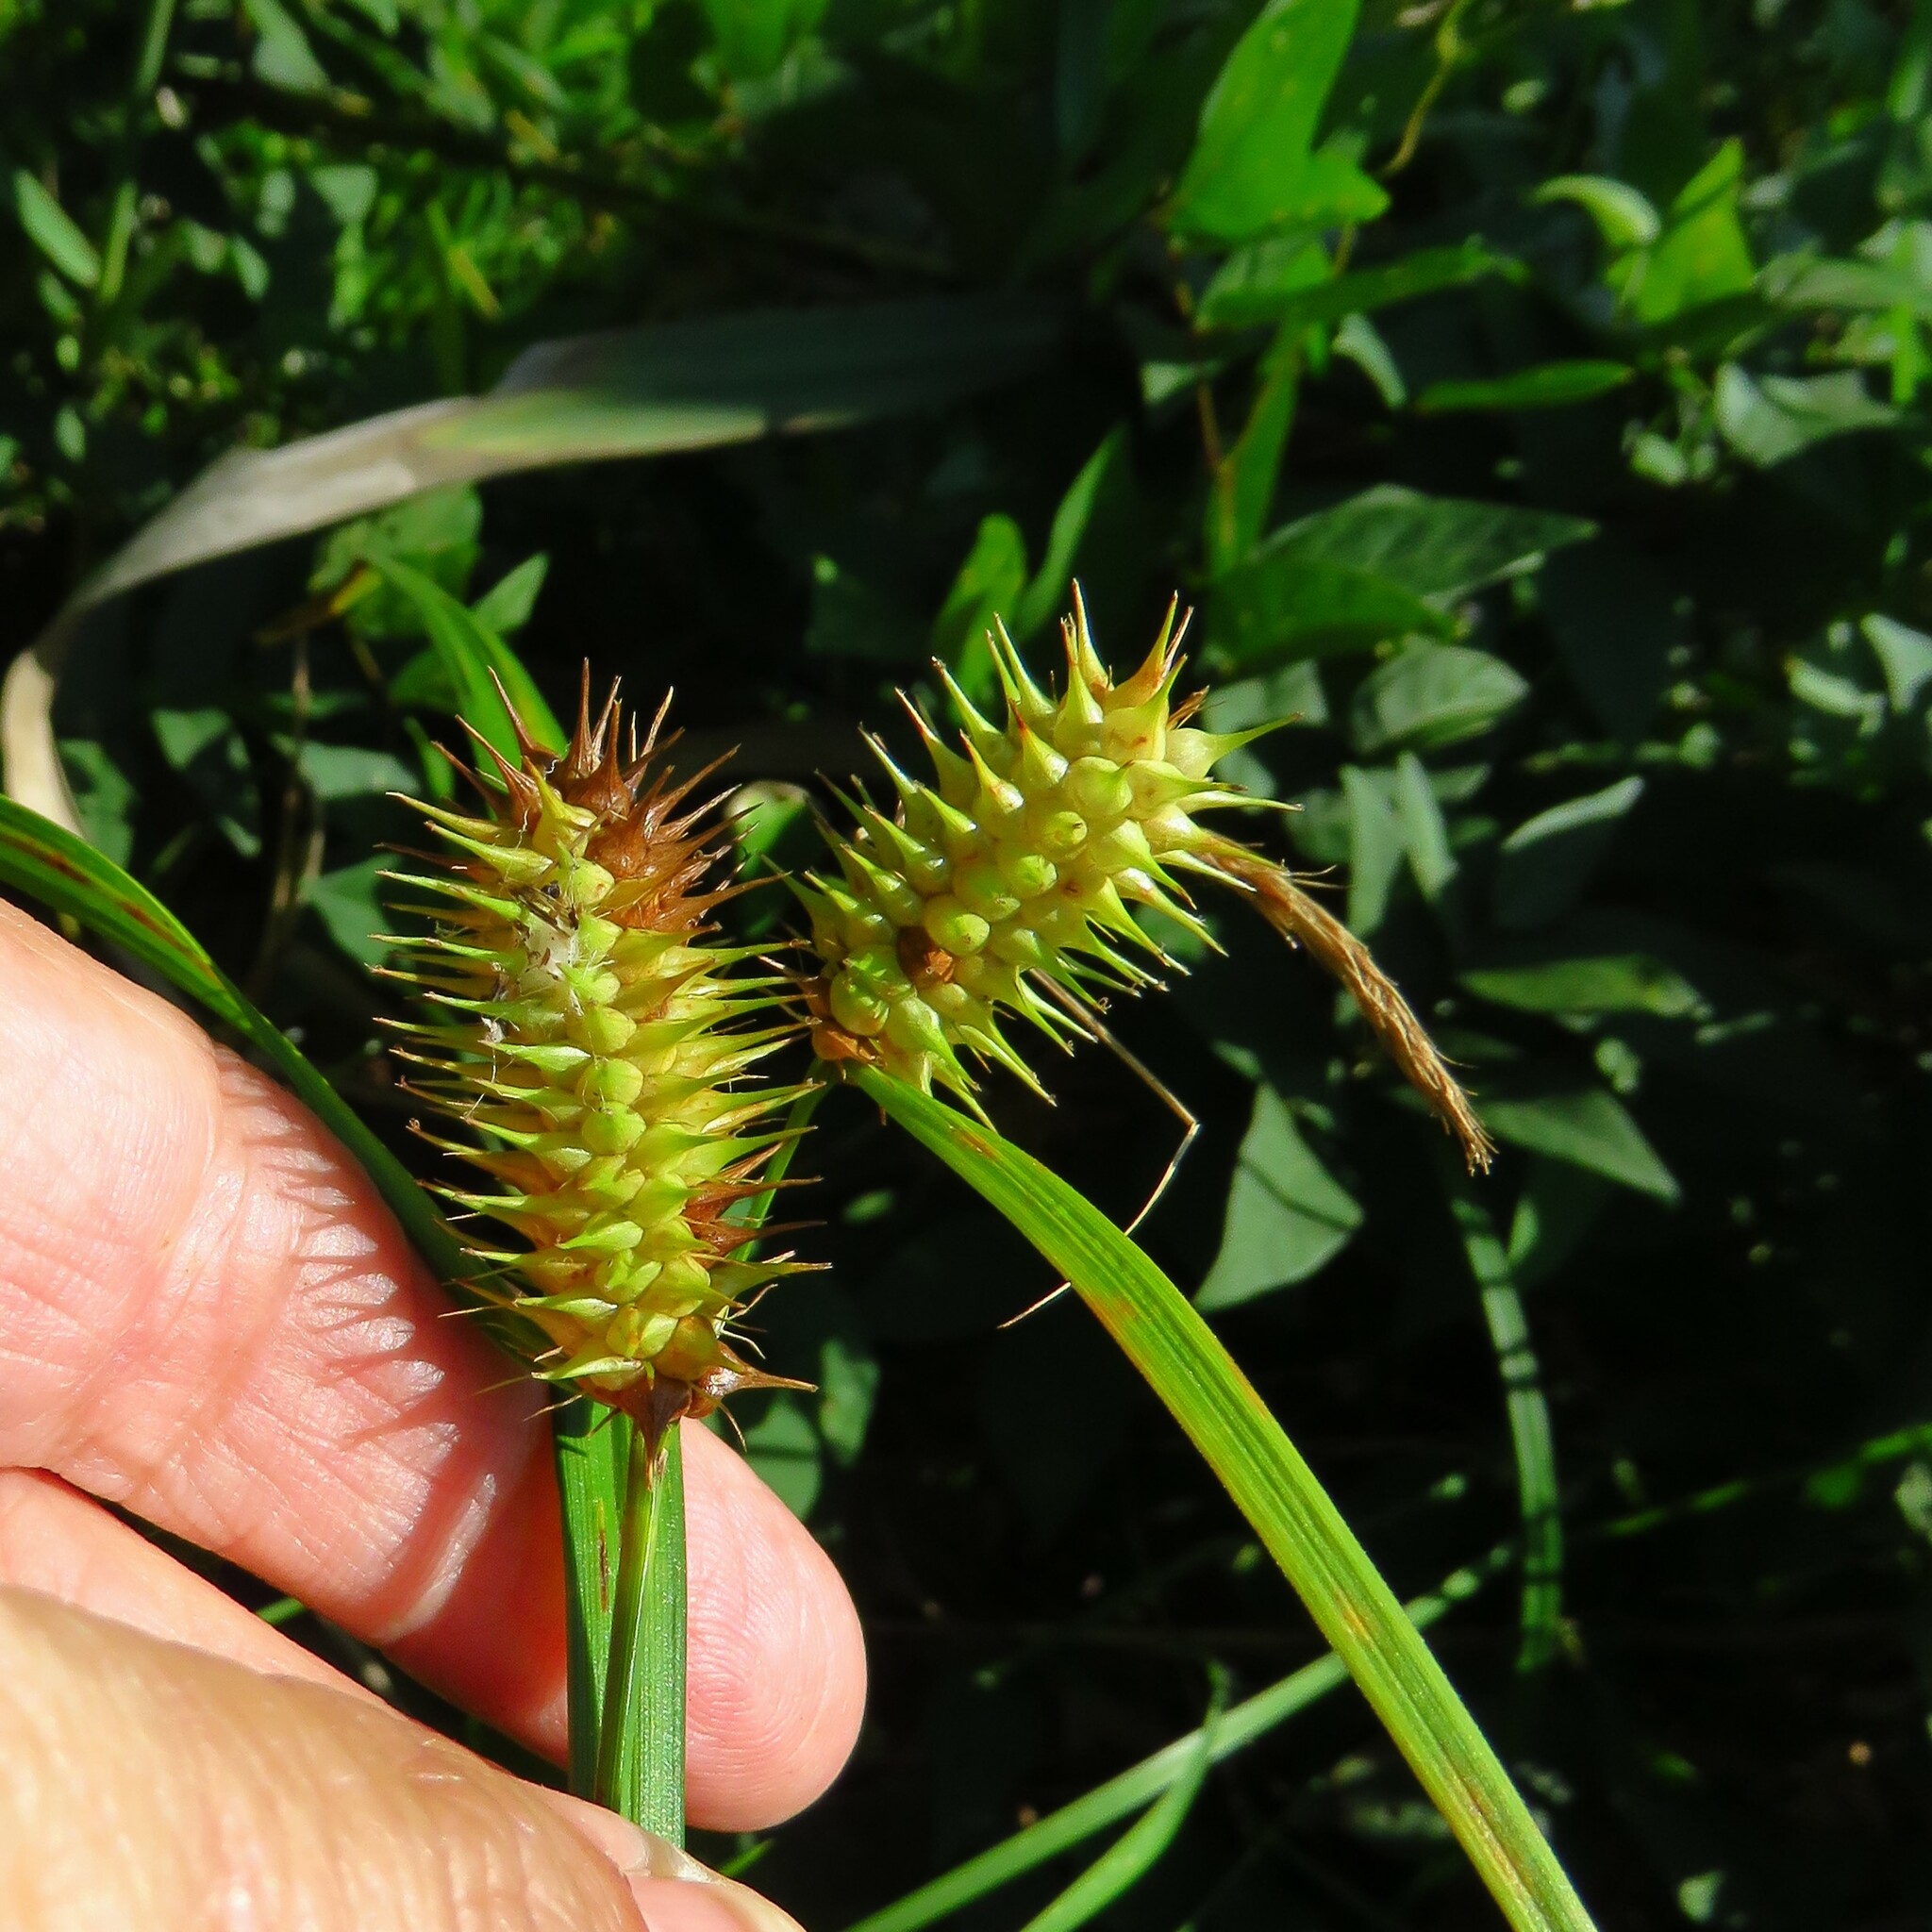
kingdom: Plantae
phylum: Tracheophyta
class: Liliopsida
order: Poales
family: Cyperaceae
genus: Carex
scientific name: Carex lurida
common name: Sallow sedge
